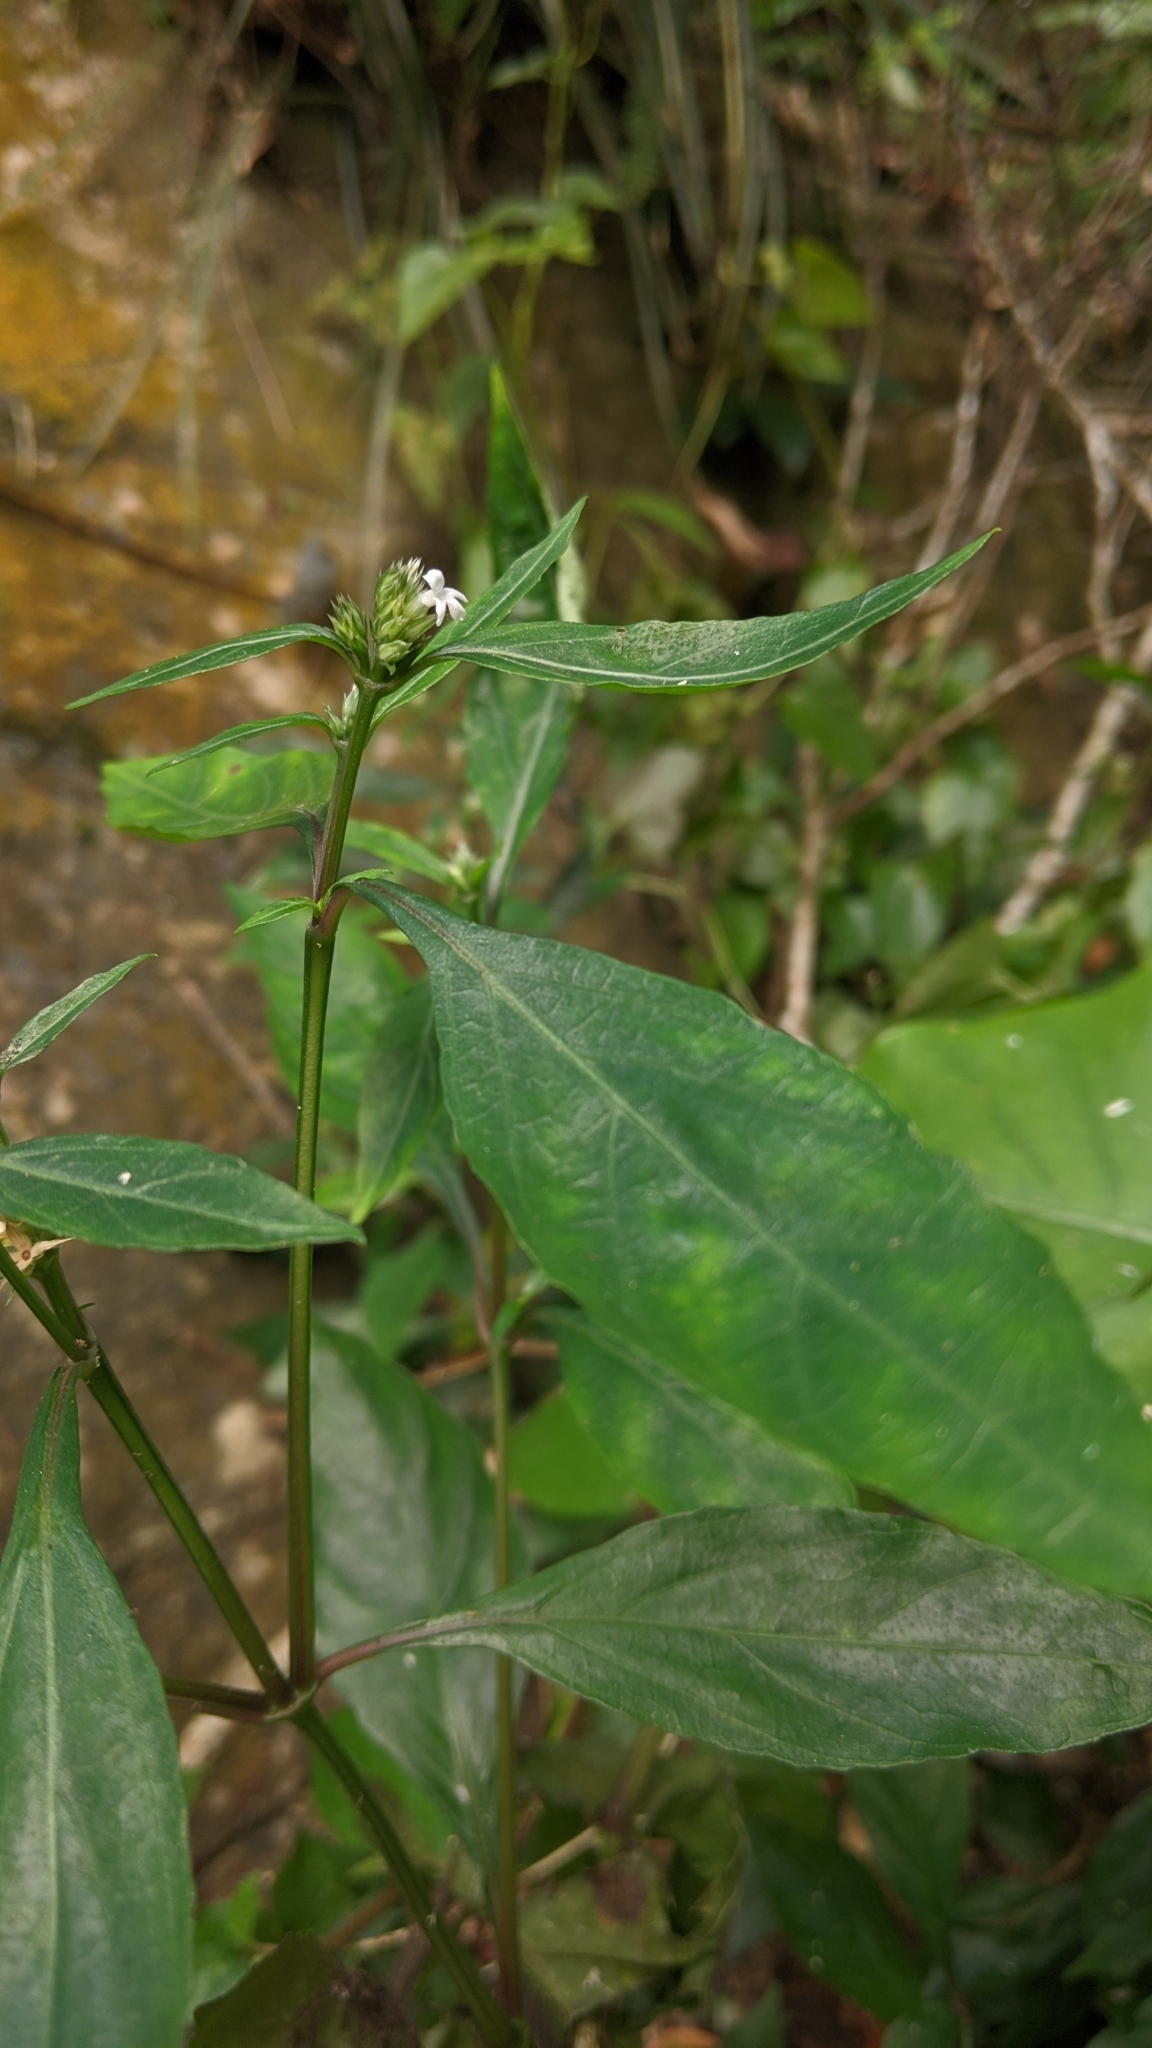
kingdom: Plantae
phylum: Tracheophyta
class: Magnoliopsida
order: Lamiales
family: Acanthaceae
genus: Lepidagathis
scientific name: Lepidagathis formosensis
